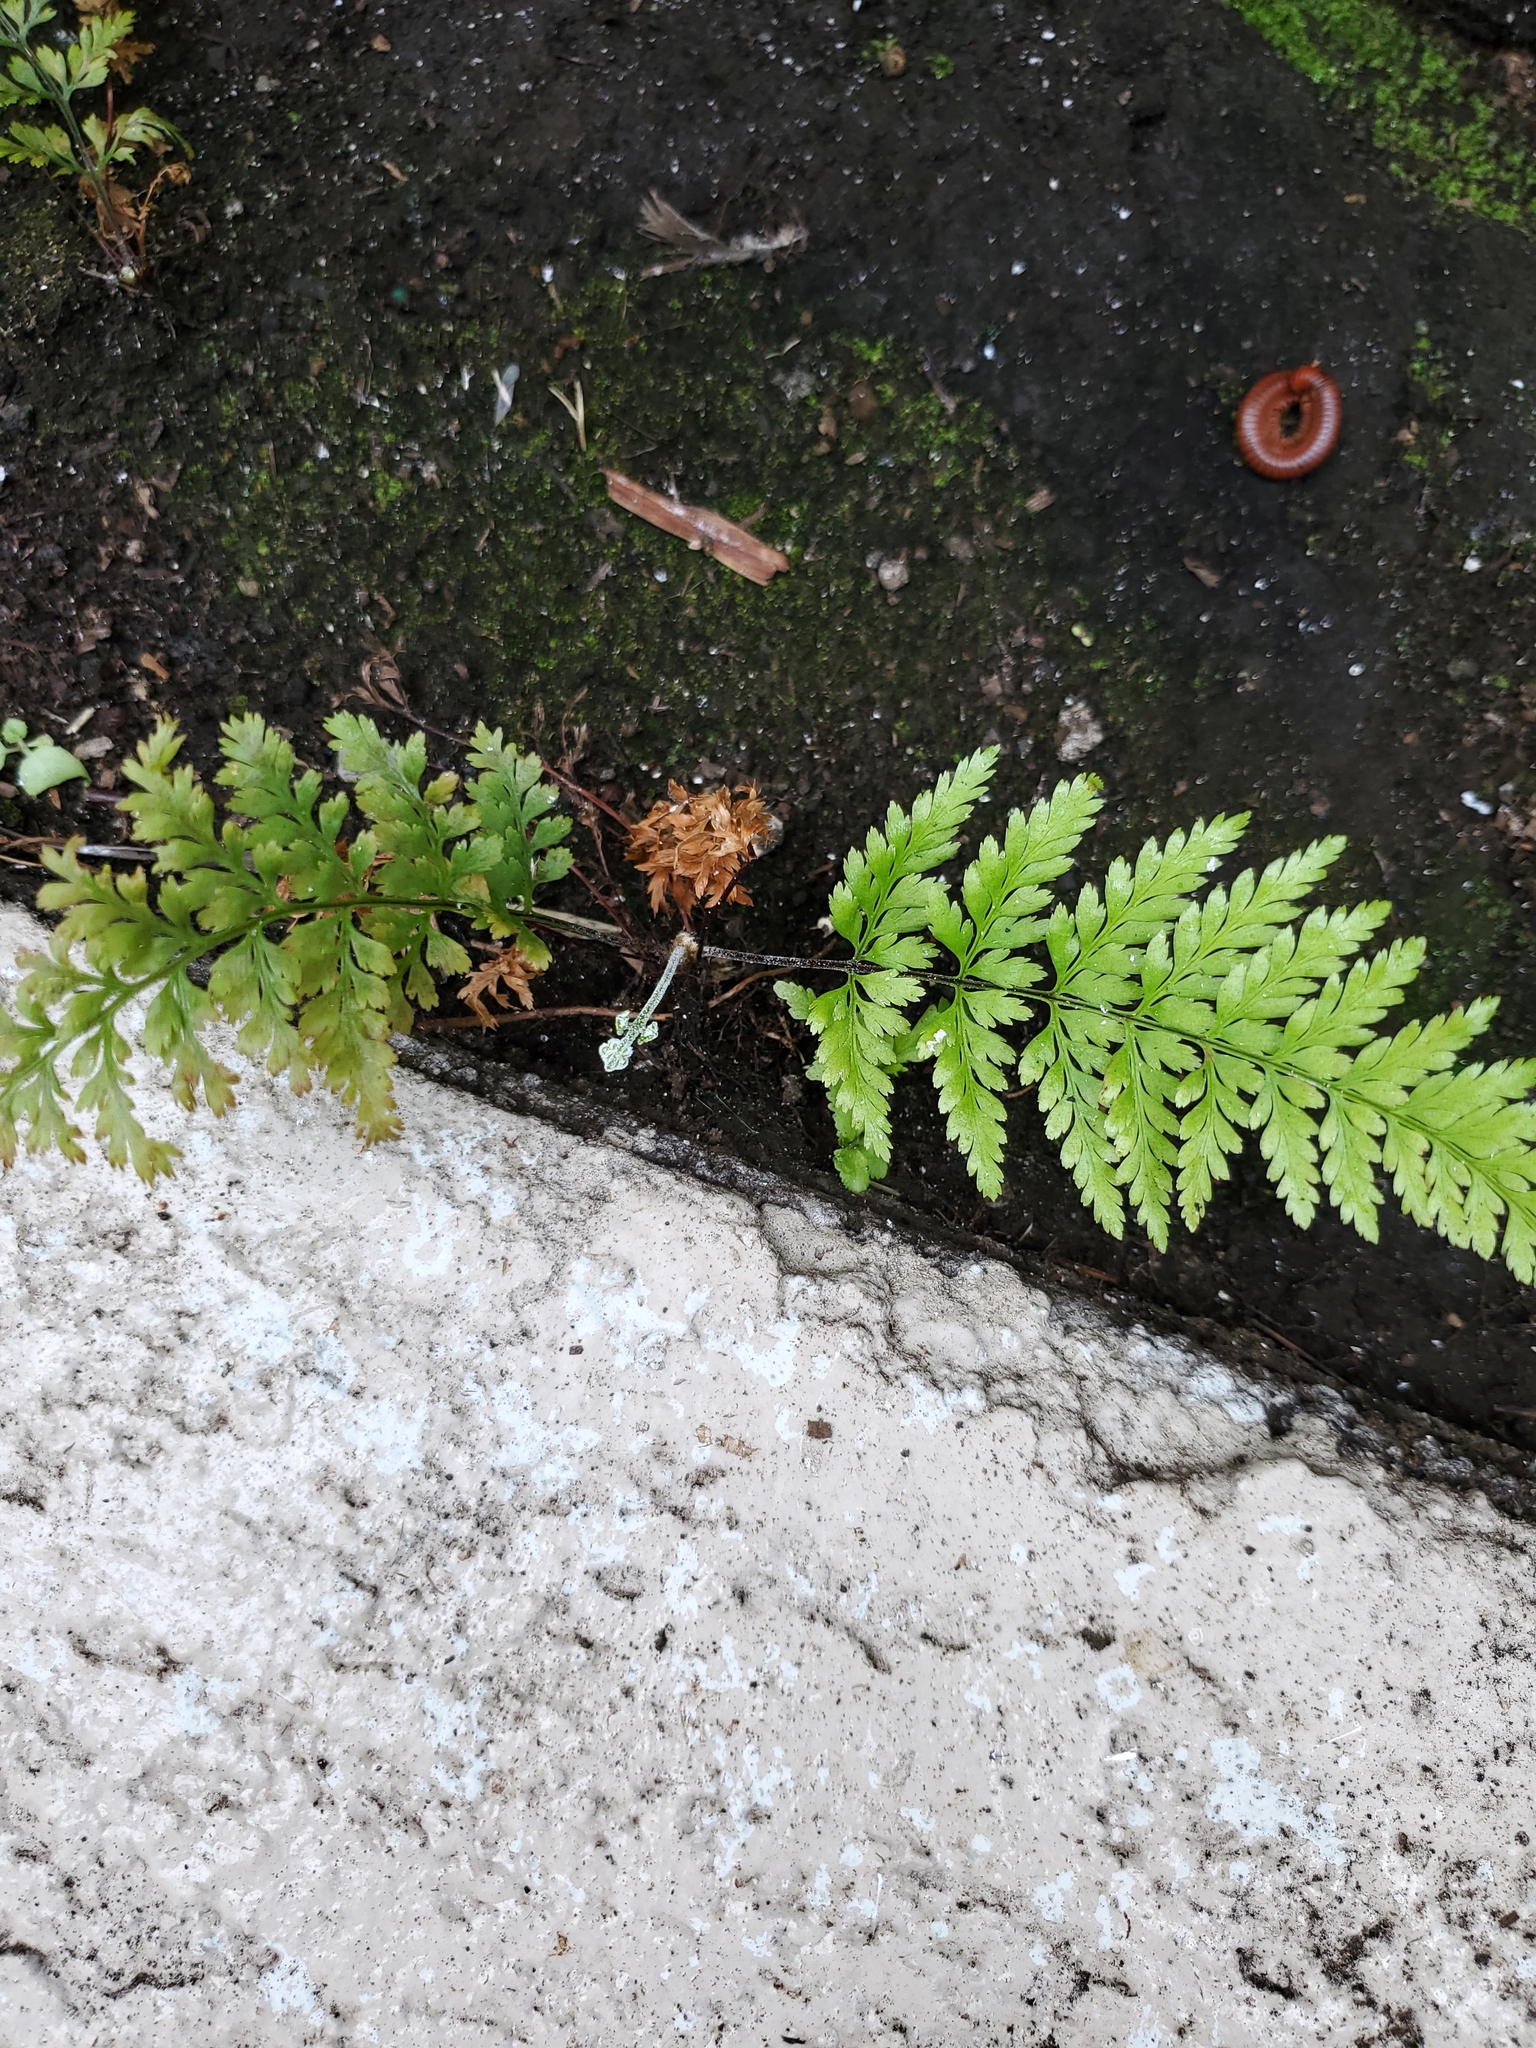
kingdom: Plantae
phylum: Tracheophyta
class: Polypodiopsida
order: Polypodiales
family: Pteridaceae
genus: Pityrogramma
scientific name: Pityrogramma calomelanos
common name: Dixie silverback fern
